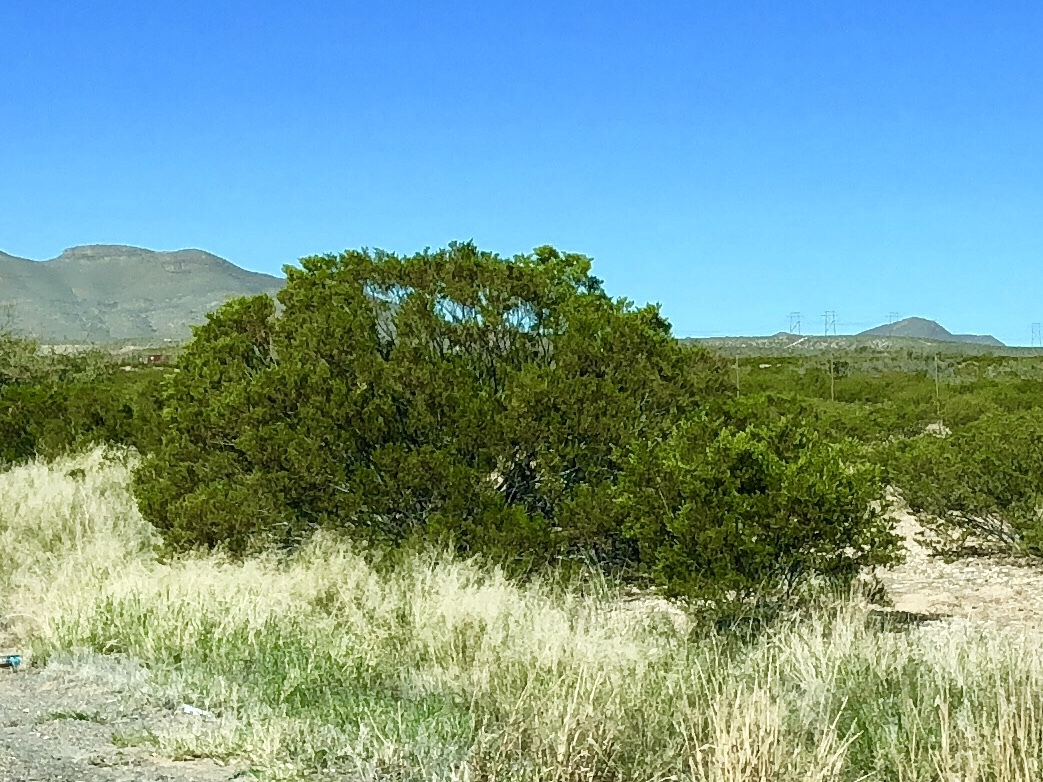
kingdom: Plantae
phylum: Tracheophyta
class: Magnoliopsida
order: Zygophyllales
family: Zygophyllaceae
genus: Larrea
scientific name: Larrea tridentata
